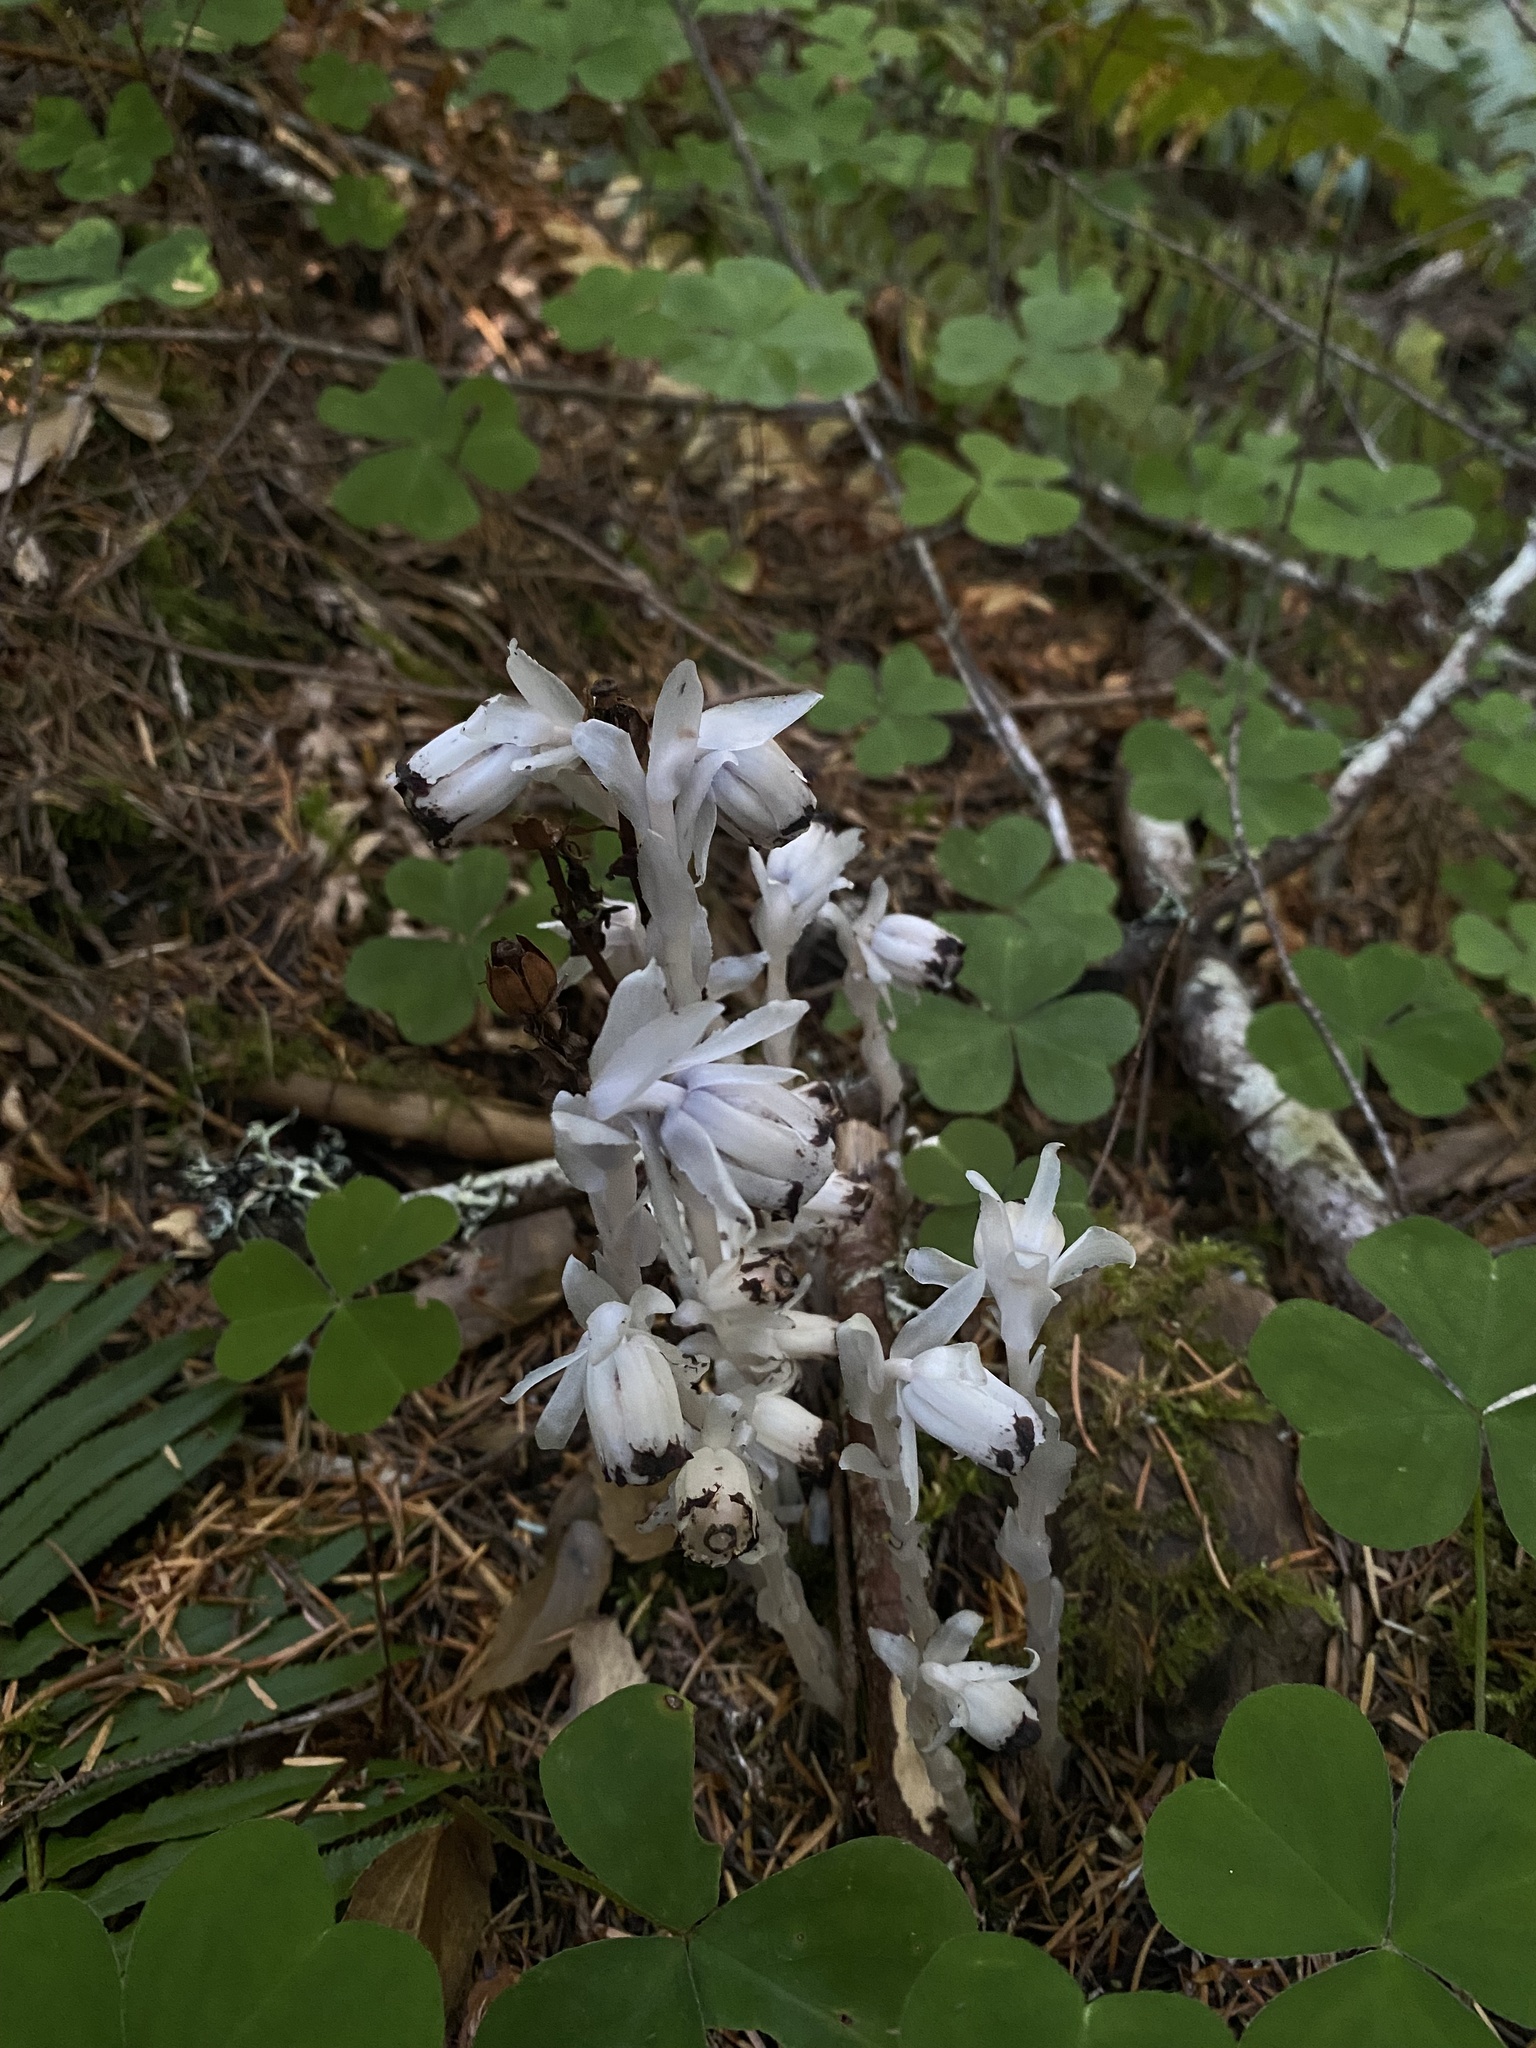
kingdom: Plantae
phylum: Tracheophyta
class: Magnoliopsida
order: Ericales
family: Ericaceae
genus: Monotropa
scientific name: Monotropa uniflora
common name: Convulsion root
